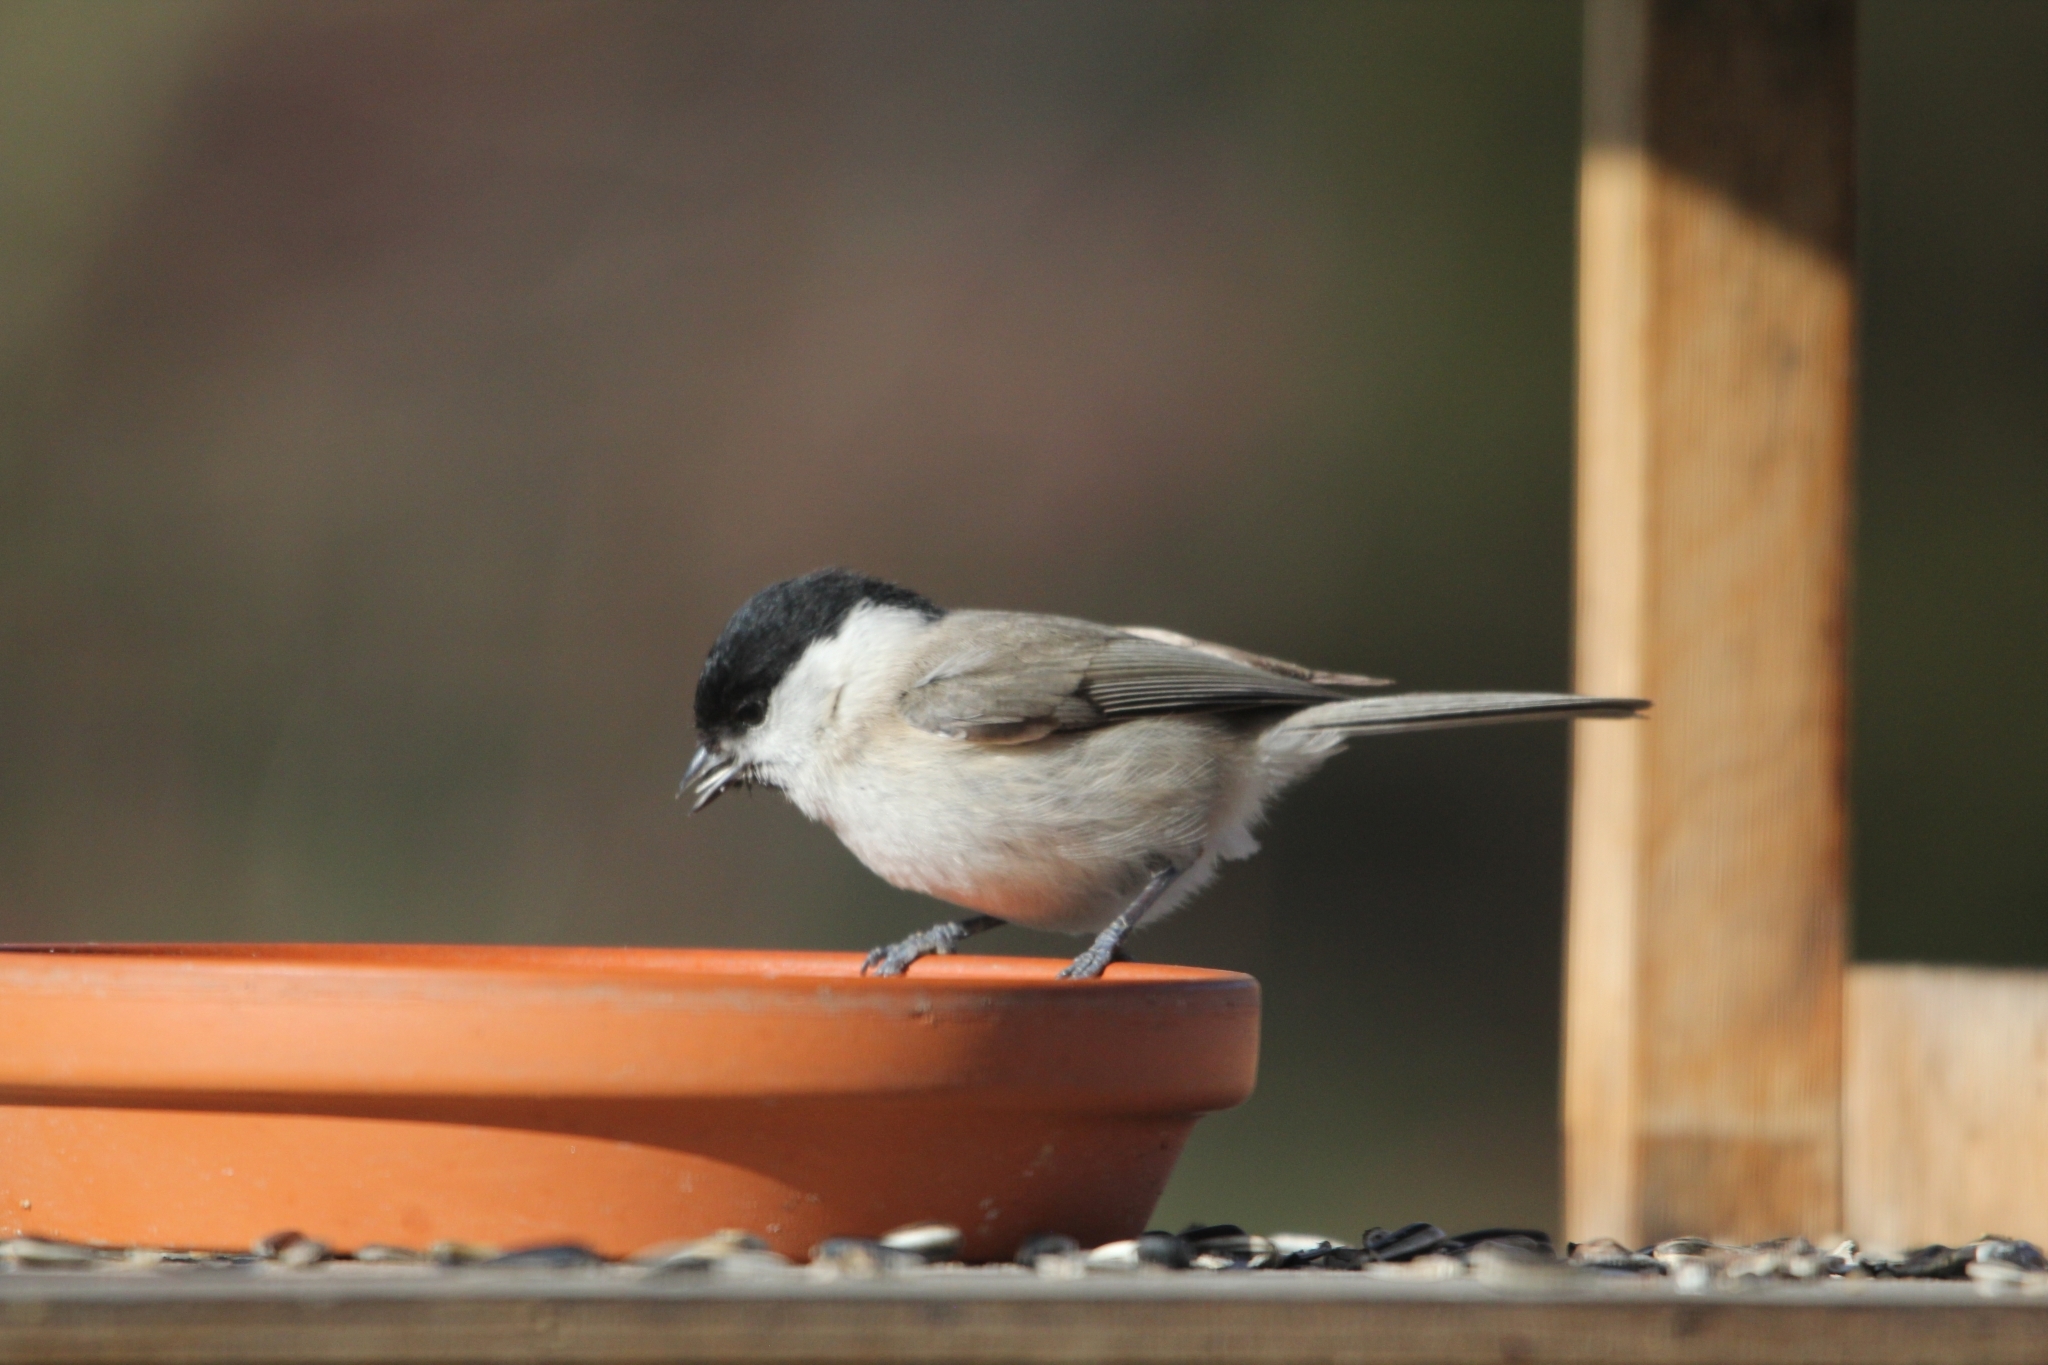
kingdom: Animalia
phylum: Chordata
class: Aves
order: Passeriformes
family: Paridae
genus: Poecile
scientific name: Poecile palustris
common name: Marsh tit
